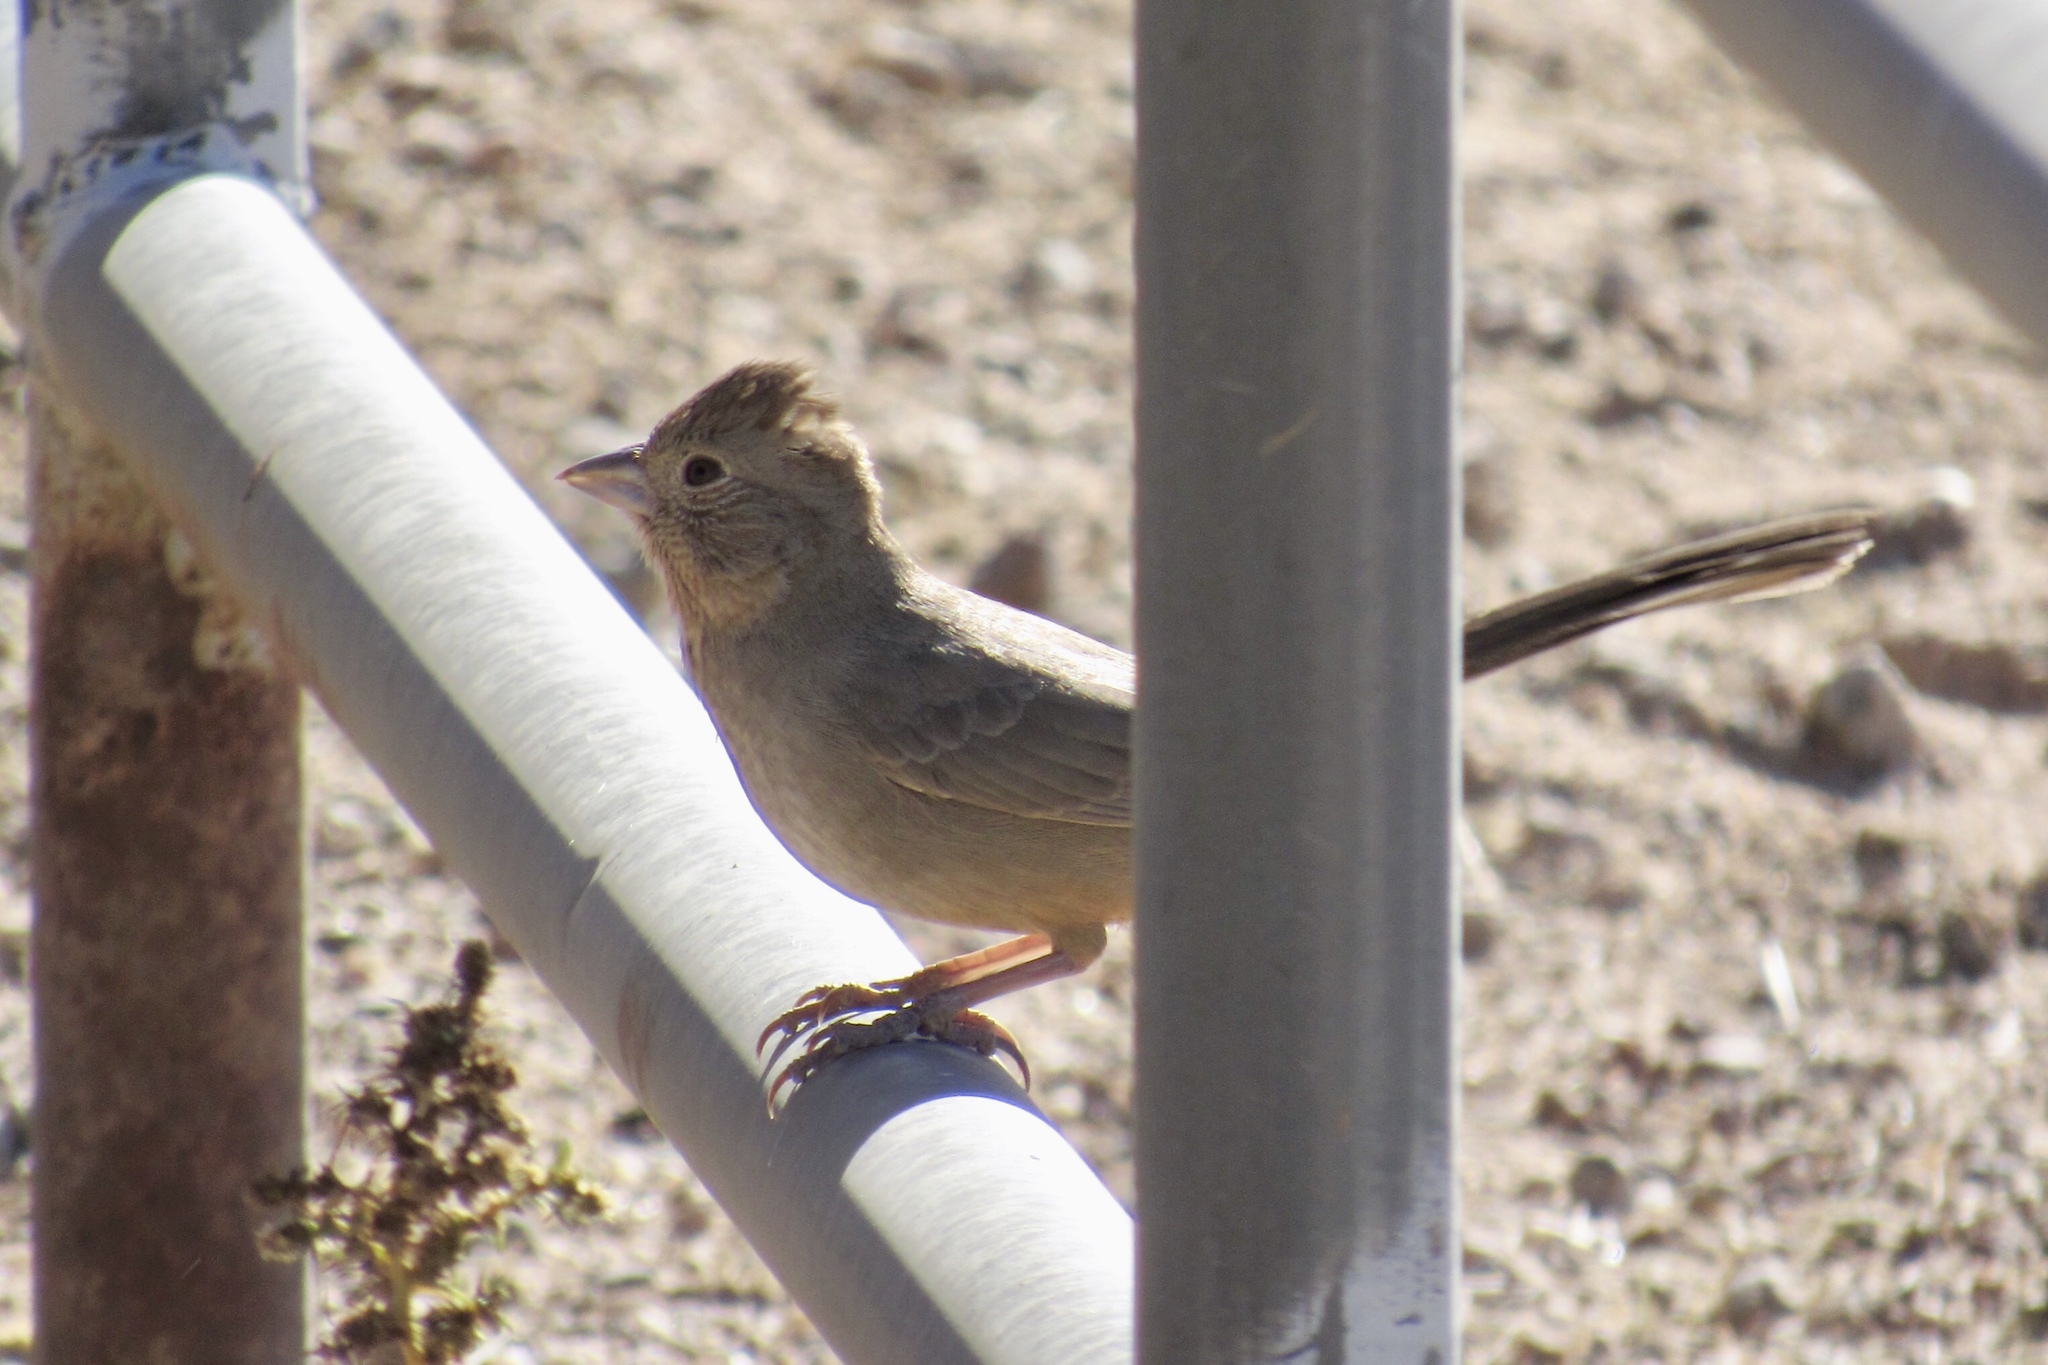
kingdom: Animalia
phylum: Chordata
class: Aves
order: Passeriformes
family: Passerellidae
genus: Melozone
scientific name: Melozone fusca
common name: Canyon towhee
